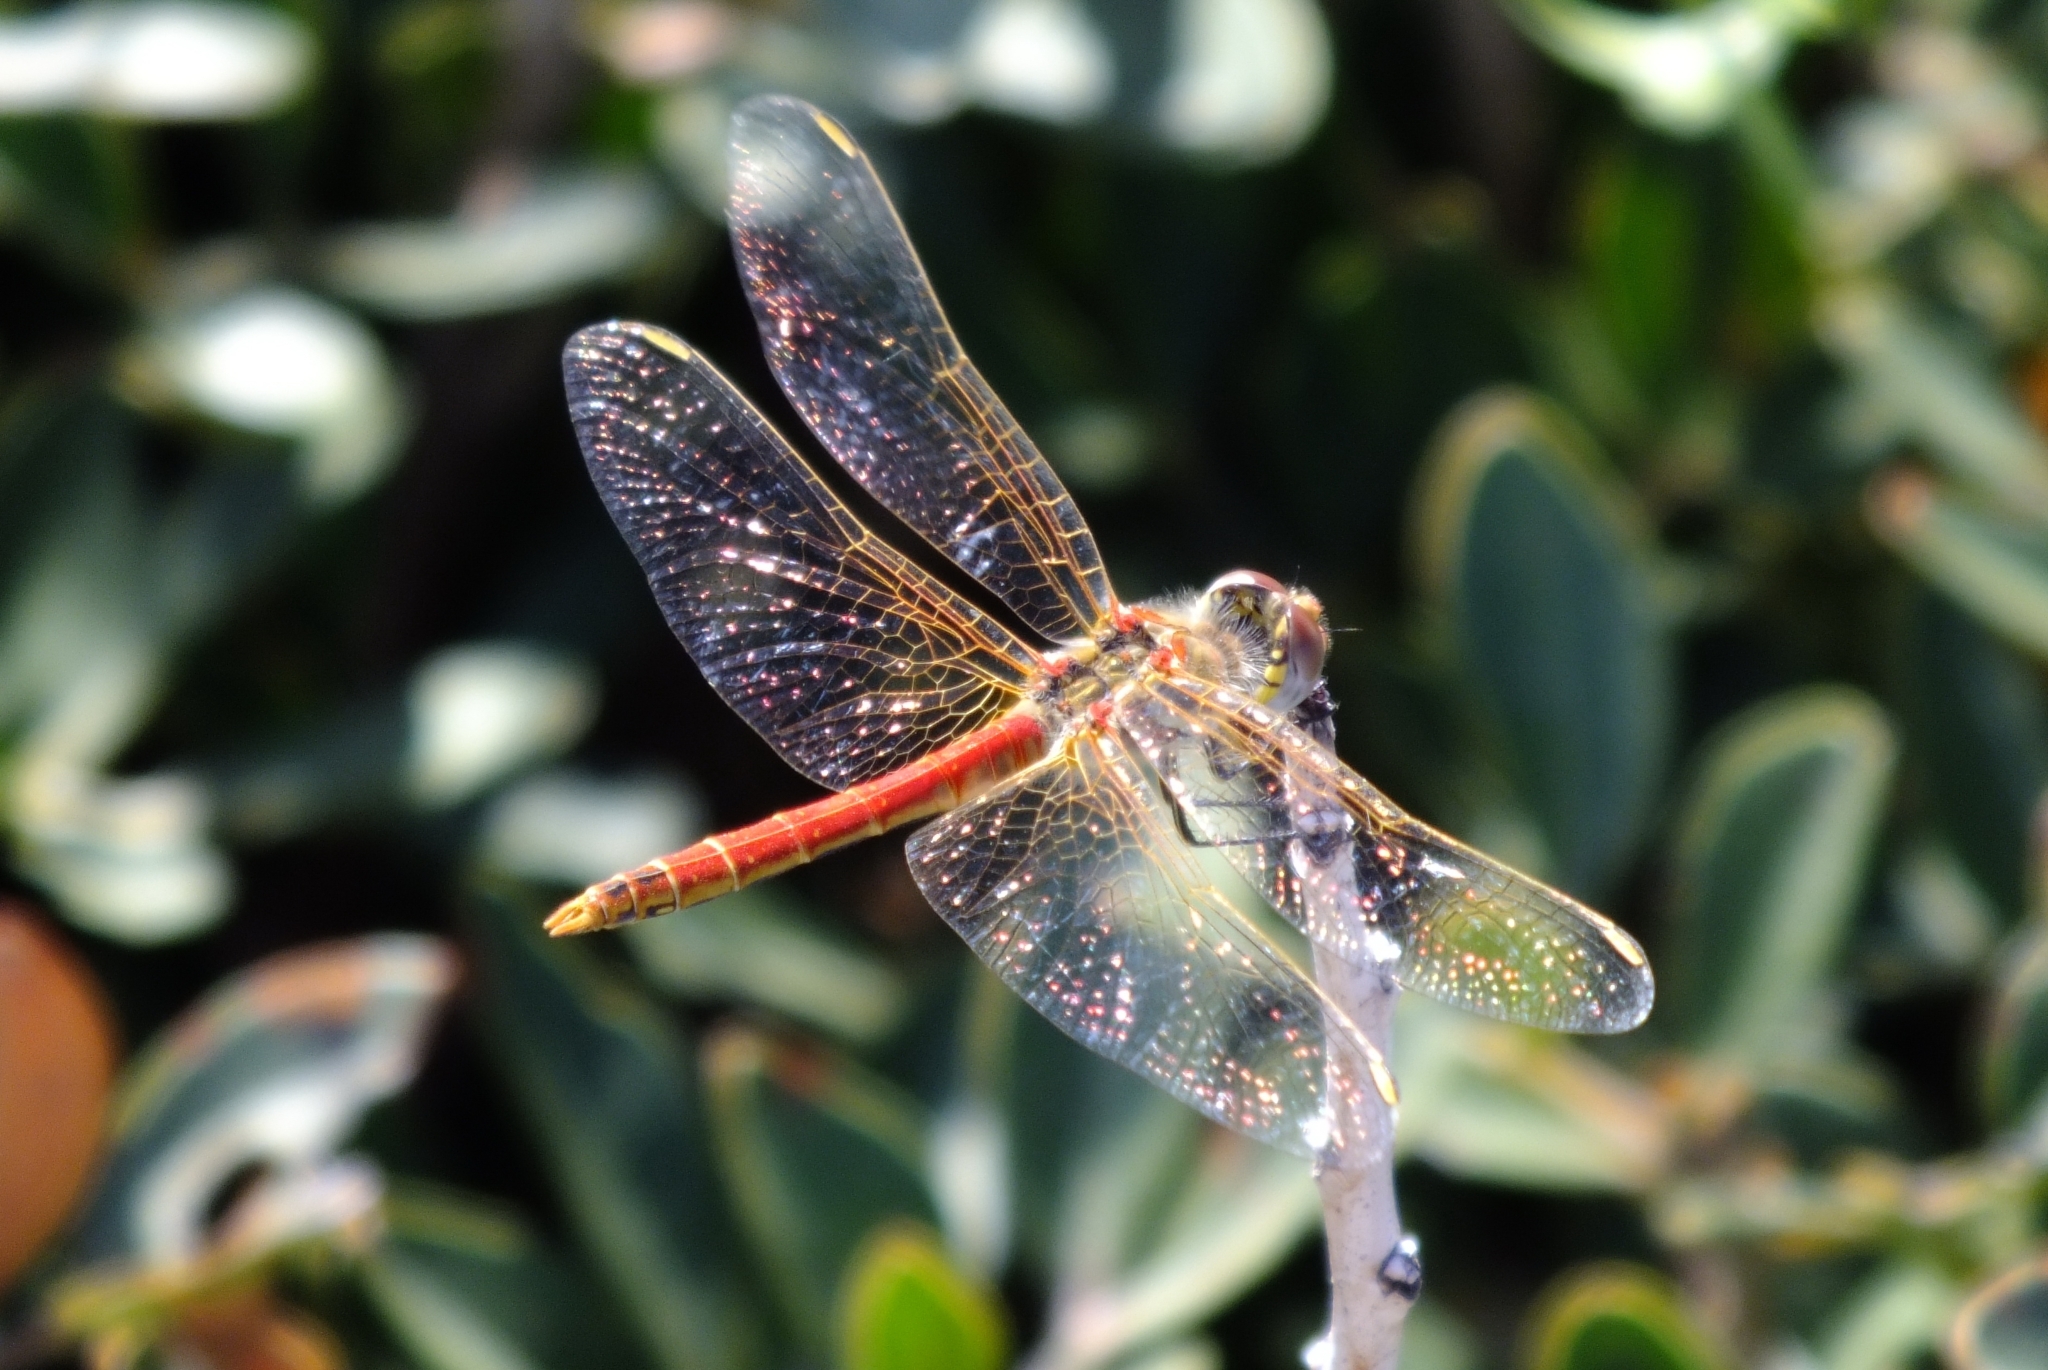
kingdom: Animalia
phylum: Arthropoda
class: Insecta
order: Odonata
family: Libellulidae
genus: Sympetrum
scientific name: Sympetrum fonscolombii
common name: Red-veined darter
